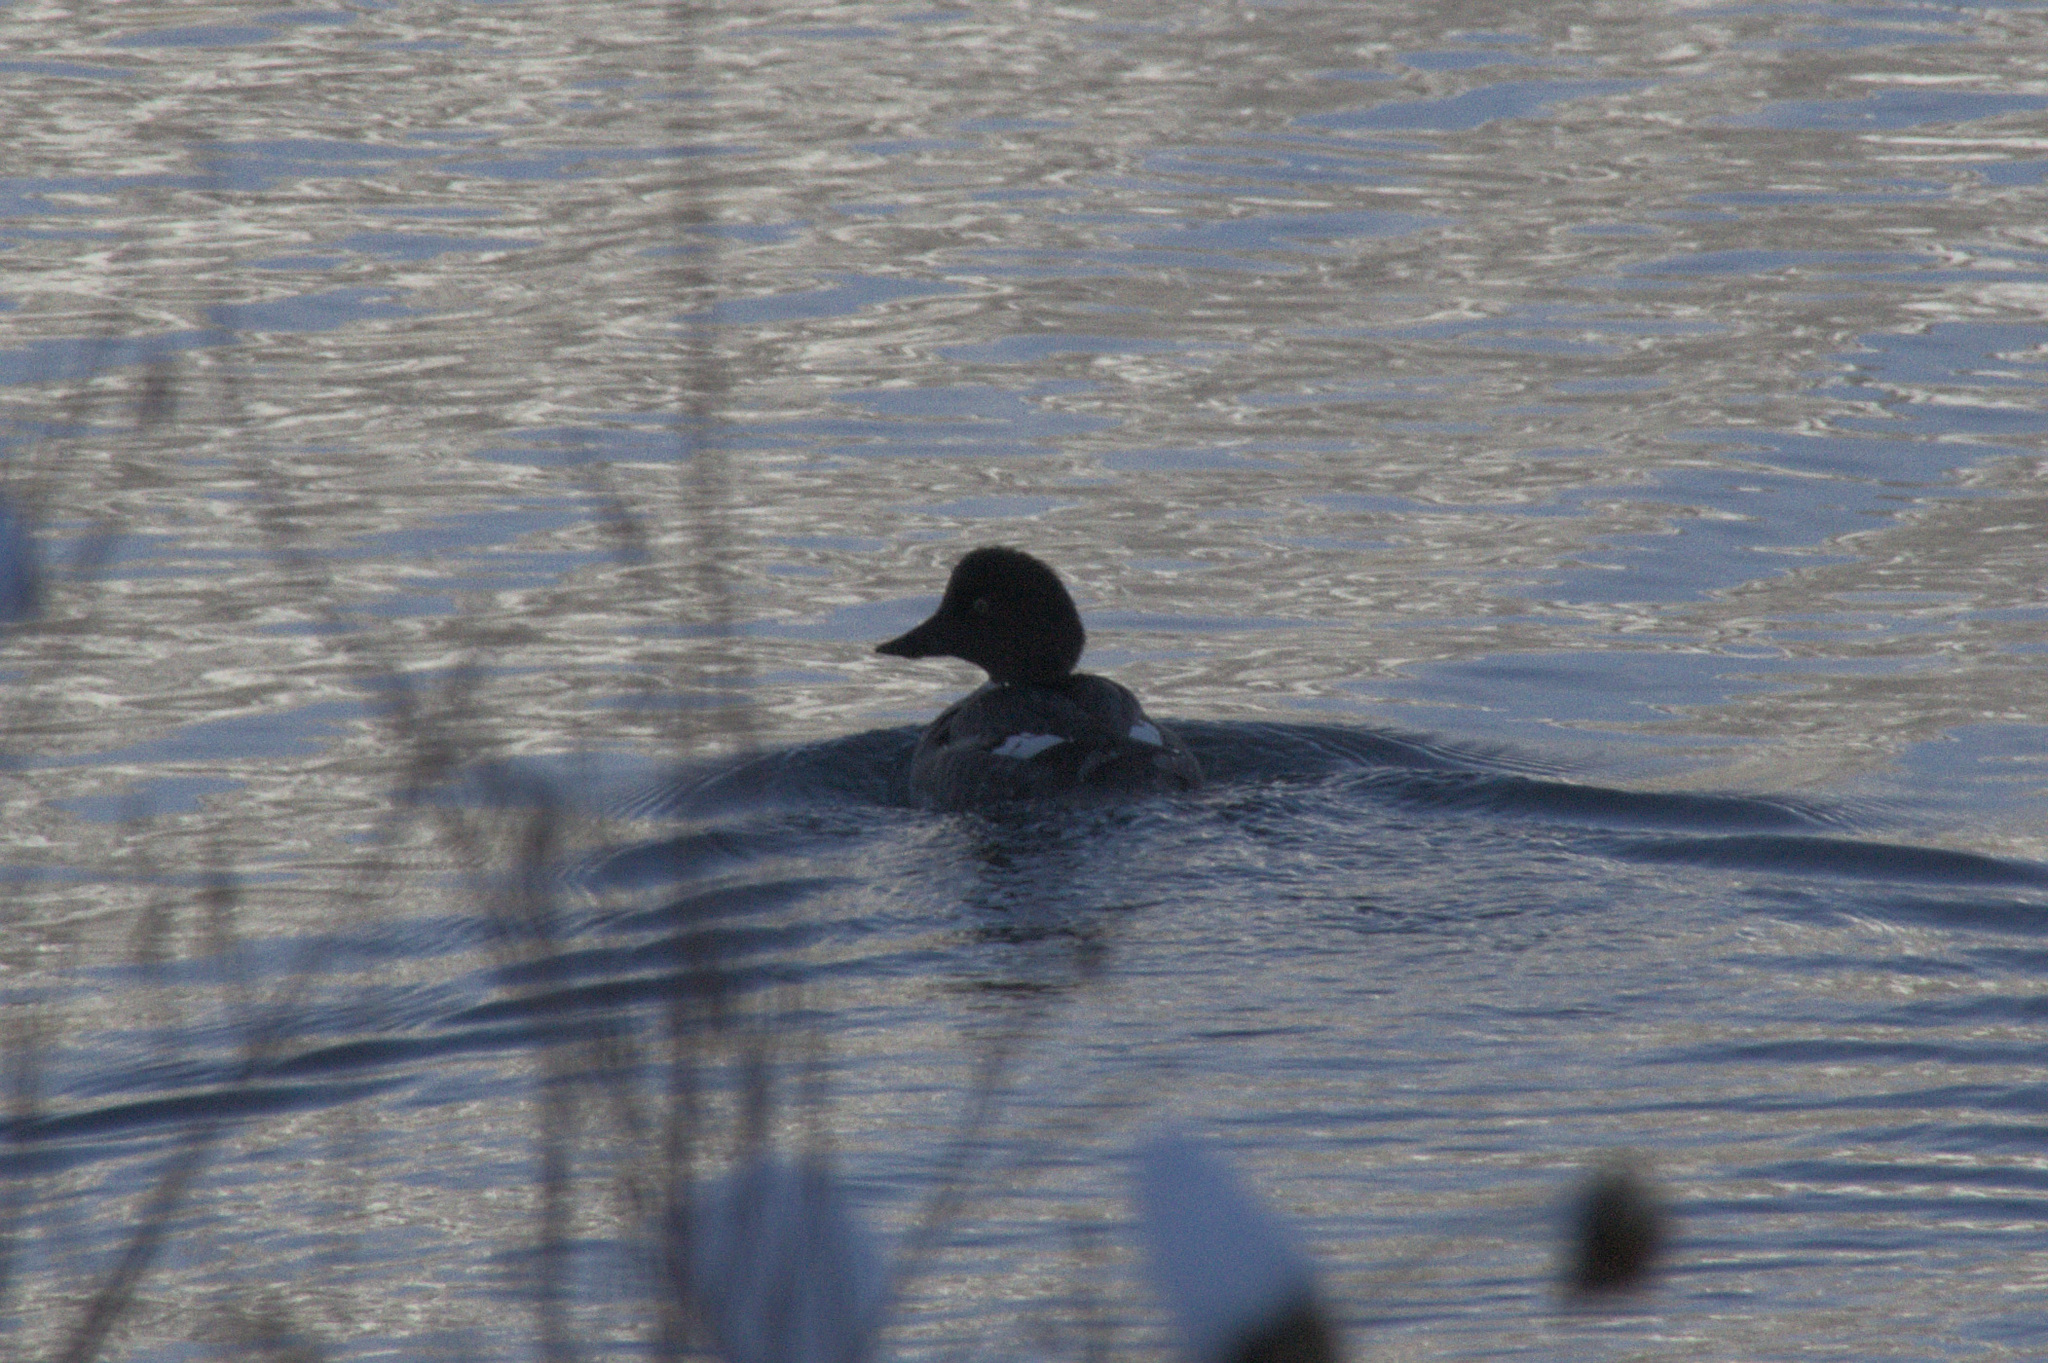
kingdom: Animalia
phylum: Chordata
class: Aves
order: Anseriformes
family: Anatidae
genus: Bucephala
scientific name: Bucephala clangula
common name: Common goldeneye
